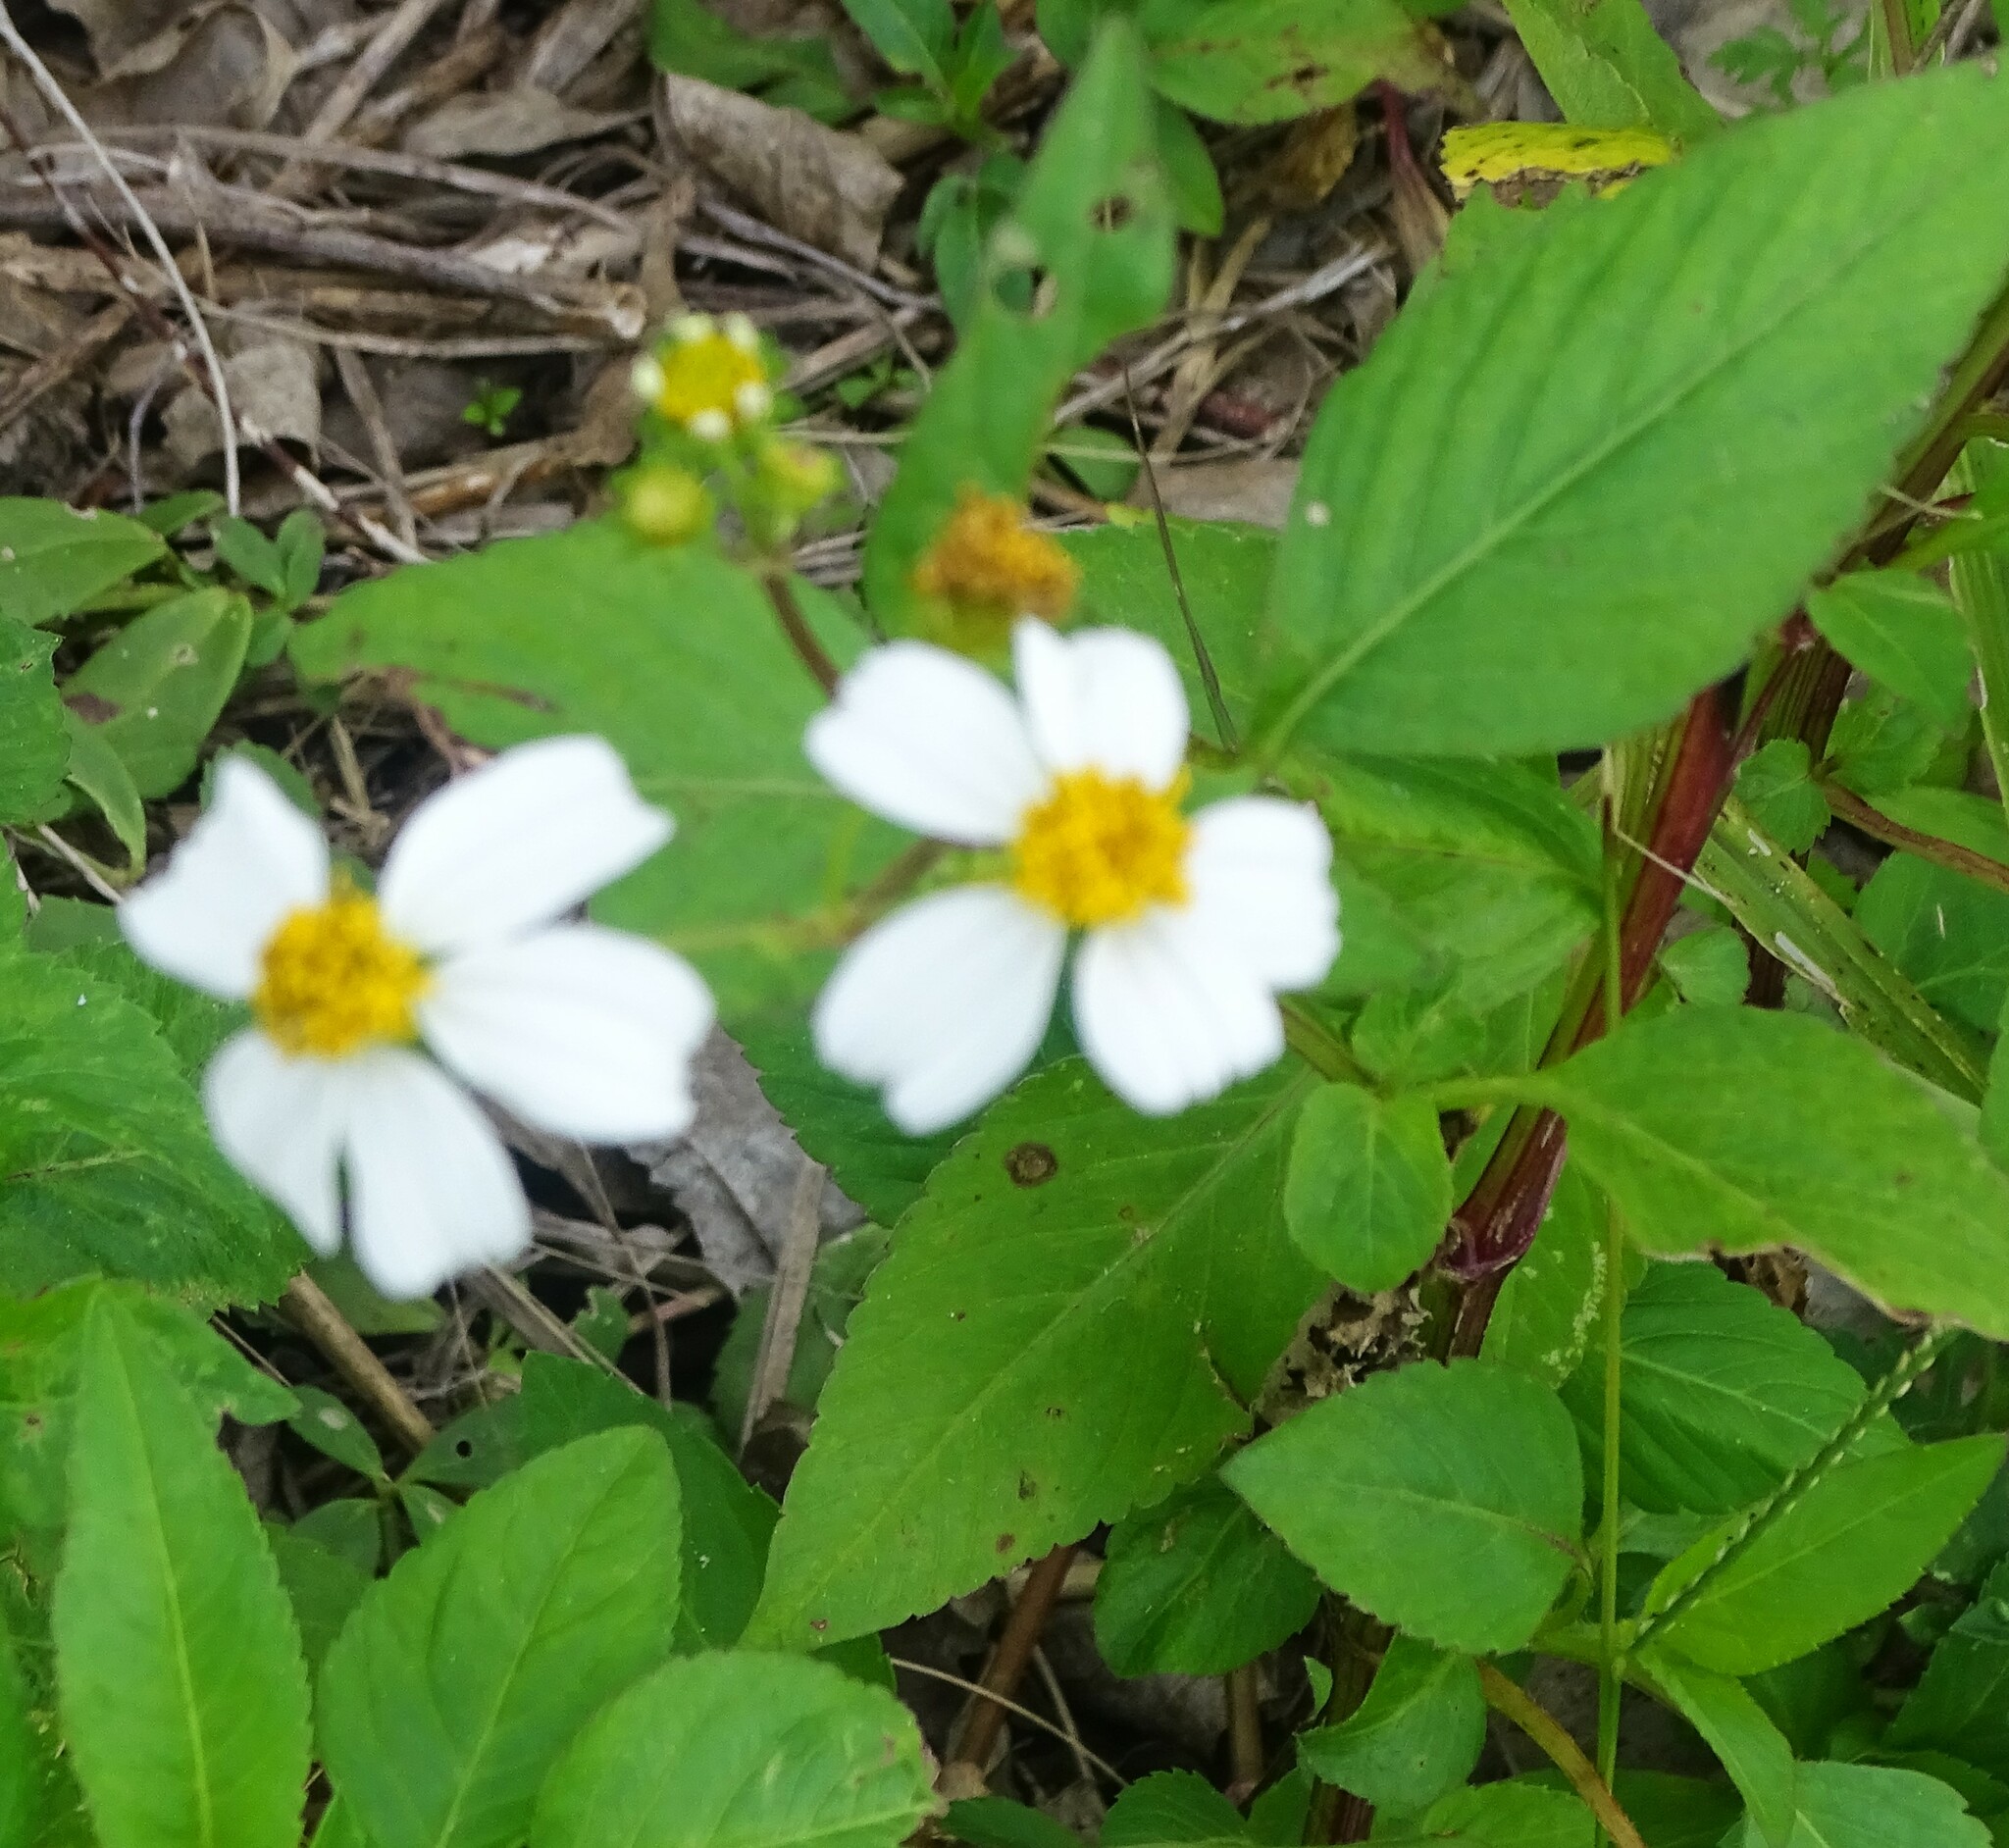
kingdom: Plantae
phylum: Tracheophyta
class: Magnoliopsida
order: Asterales
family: Asteraceae
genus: Bidens
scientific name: Bidens alba
